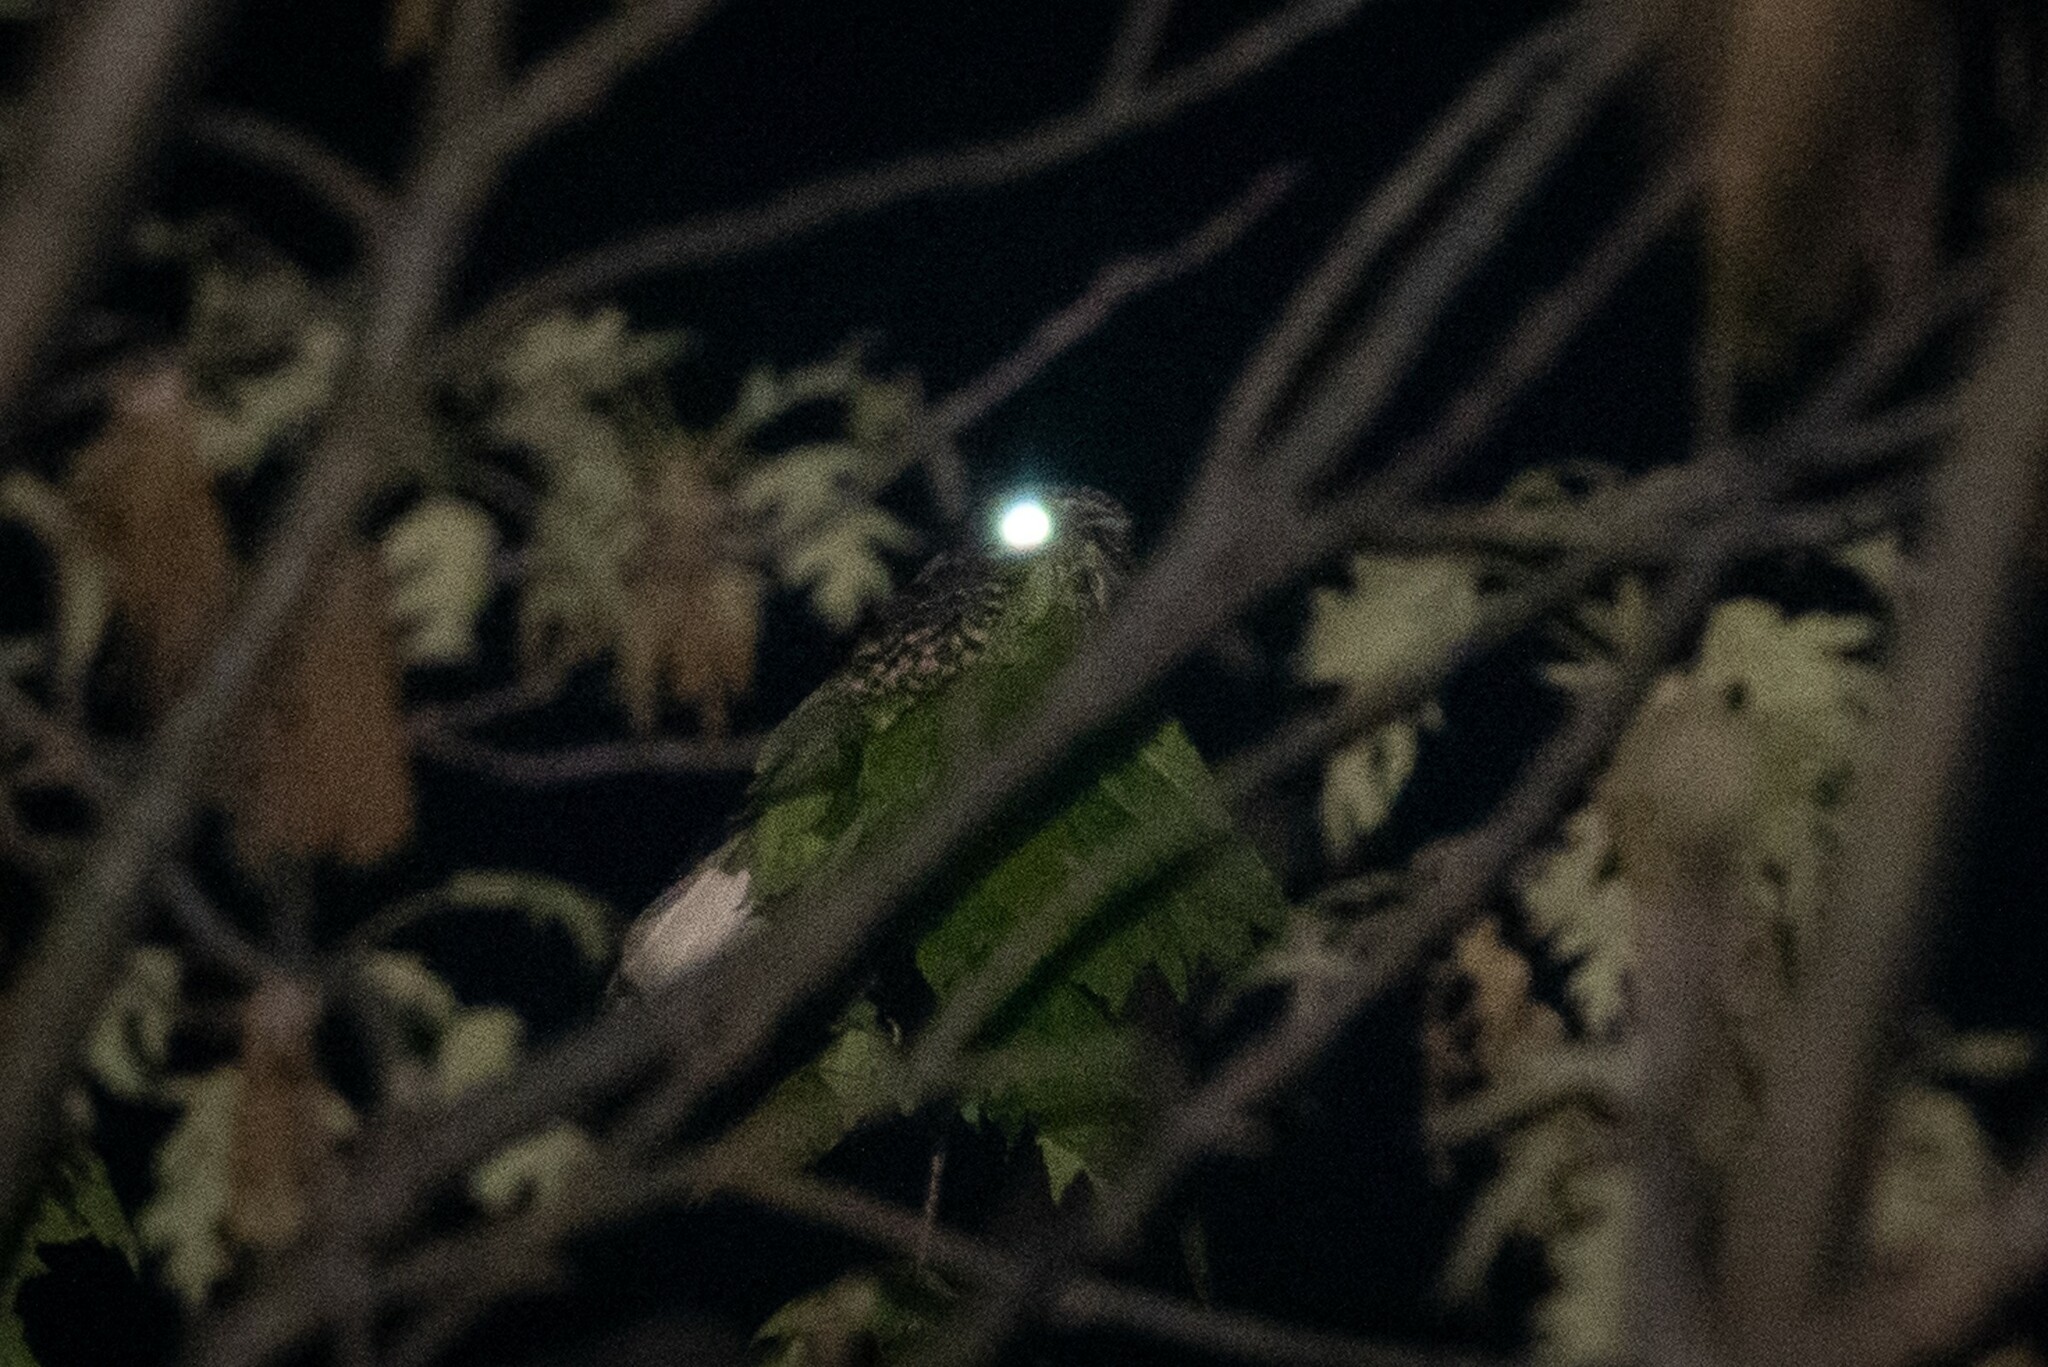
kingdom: Animalia
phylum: Chordata
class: Aves
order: Caprimulgiformes
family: Caprimulgidae
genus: Antrostomus
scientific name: Antrostomus vociferus
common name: Eastern whip-poor-will
